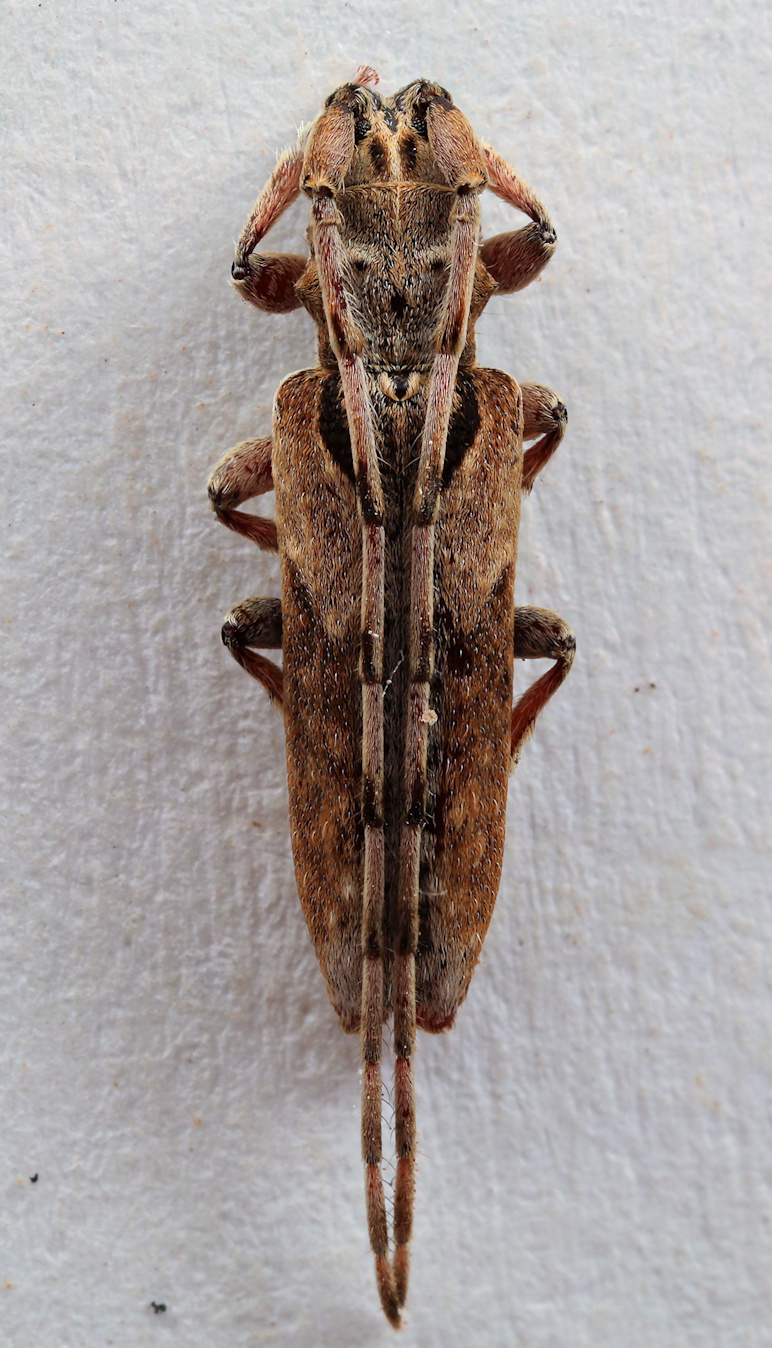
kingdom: Animalia
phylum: Arthropoda
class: Insecta
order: Coleoptera
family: Cerambycidae
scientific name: Cerambycidae
